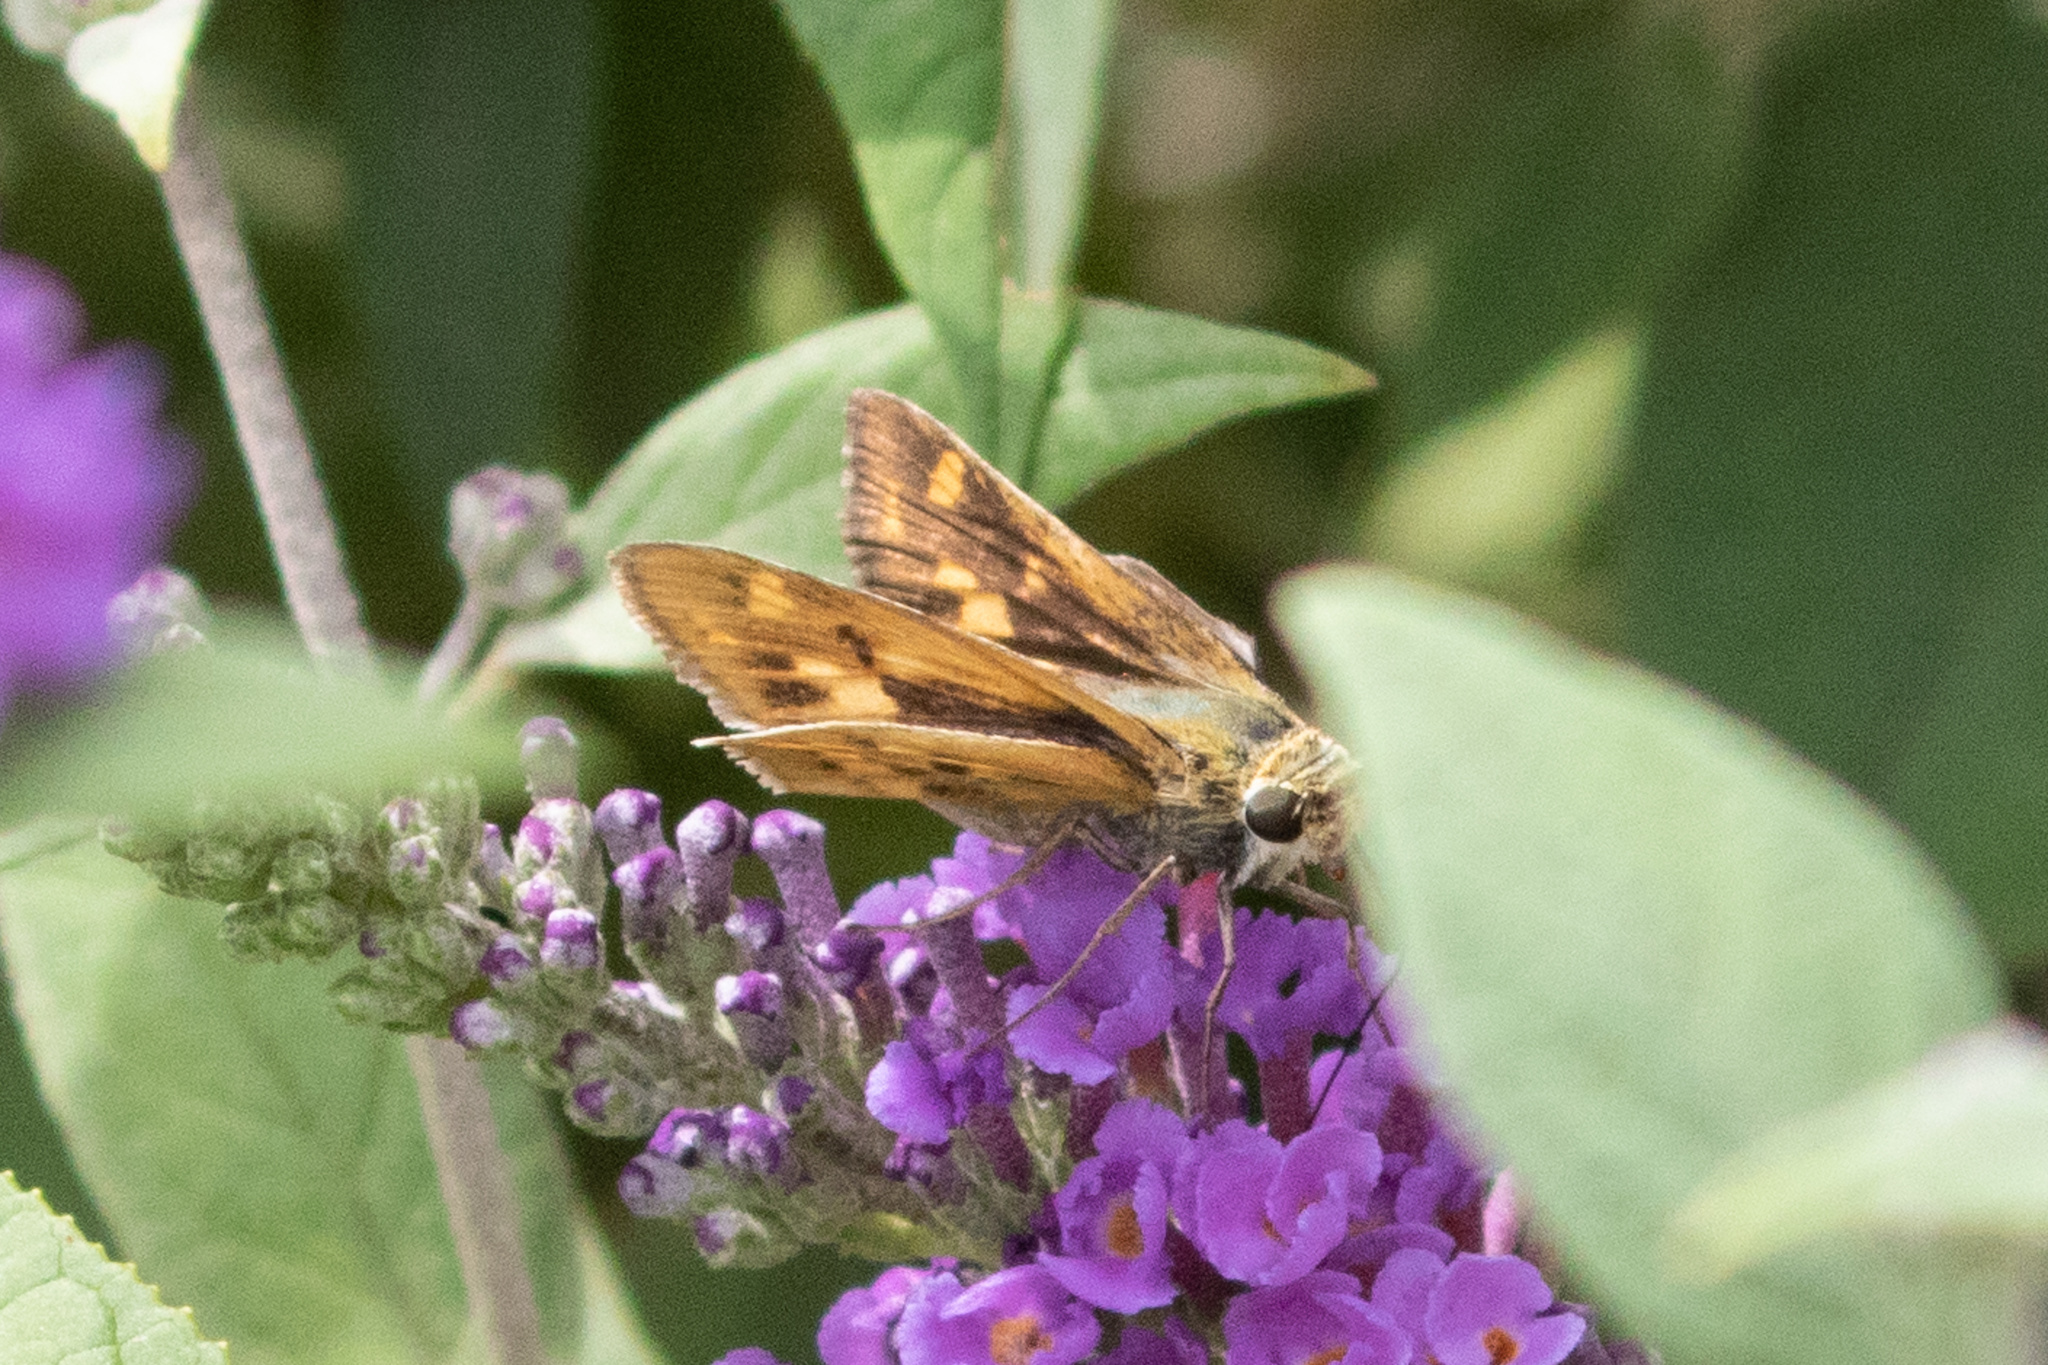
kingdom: Animalia
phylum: Arthropoda
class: Insecta
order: Lepidoptera
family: Hesperiidae
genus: Hylephila
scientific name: Hylephila phyleus
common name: Fiery skipper
